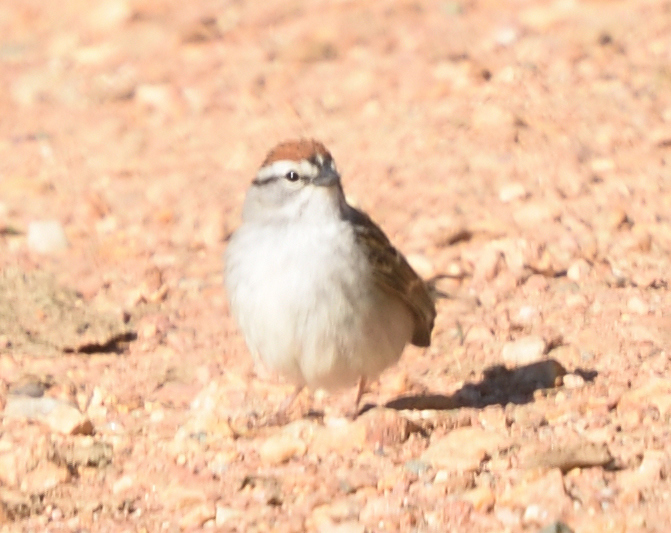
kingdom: Animalia
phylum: Chordata
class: Aves
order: Passeriformes
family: Passerellidae
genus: Spizella
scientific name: Spizella passerina
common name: Chipping sparrow
